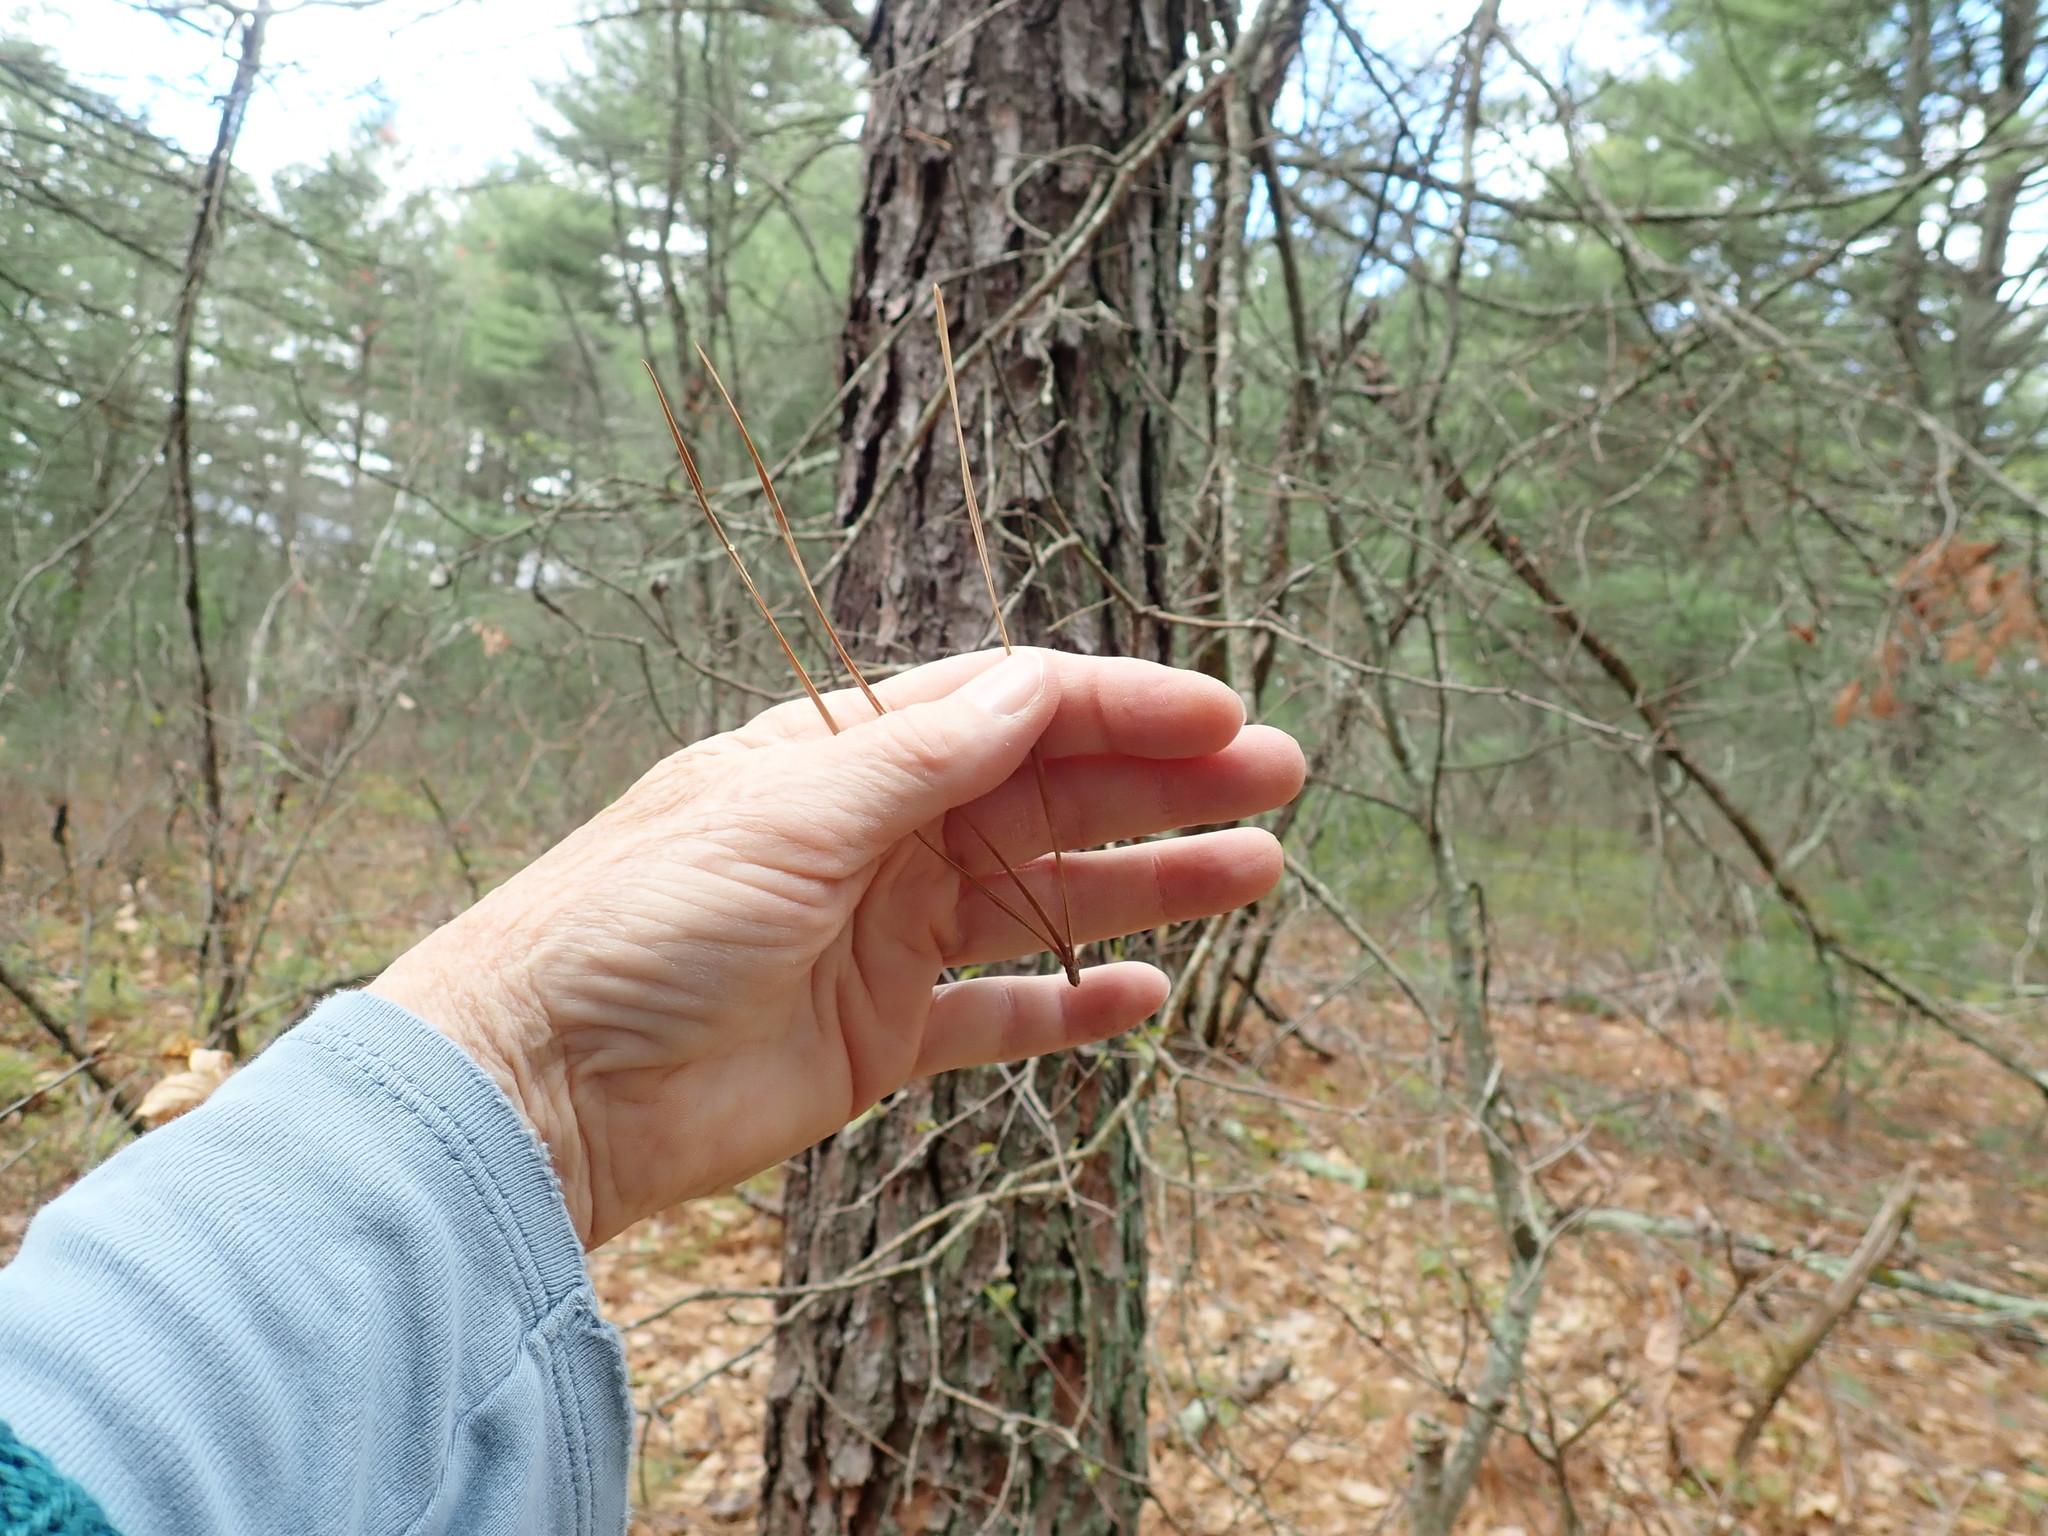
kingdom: Plantae
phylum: Tracheophyta
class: Pinopsida
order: Pinales
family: Pinaceae
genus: Pinus
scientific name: Pinus rigida
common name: Pitch pine
